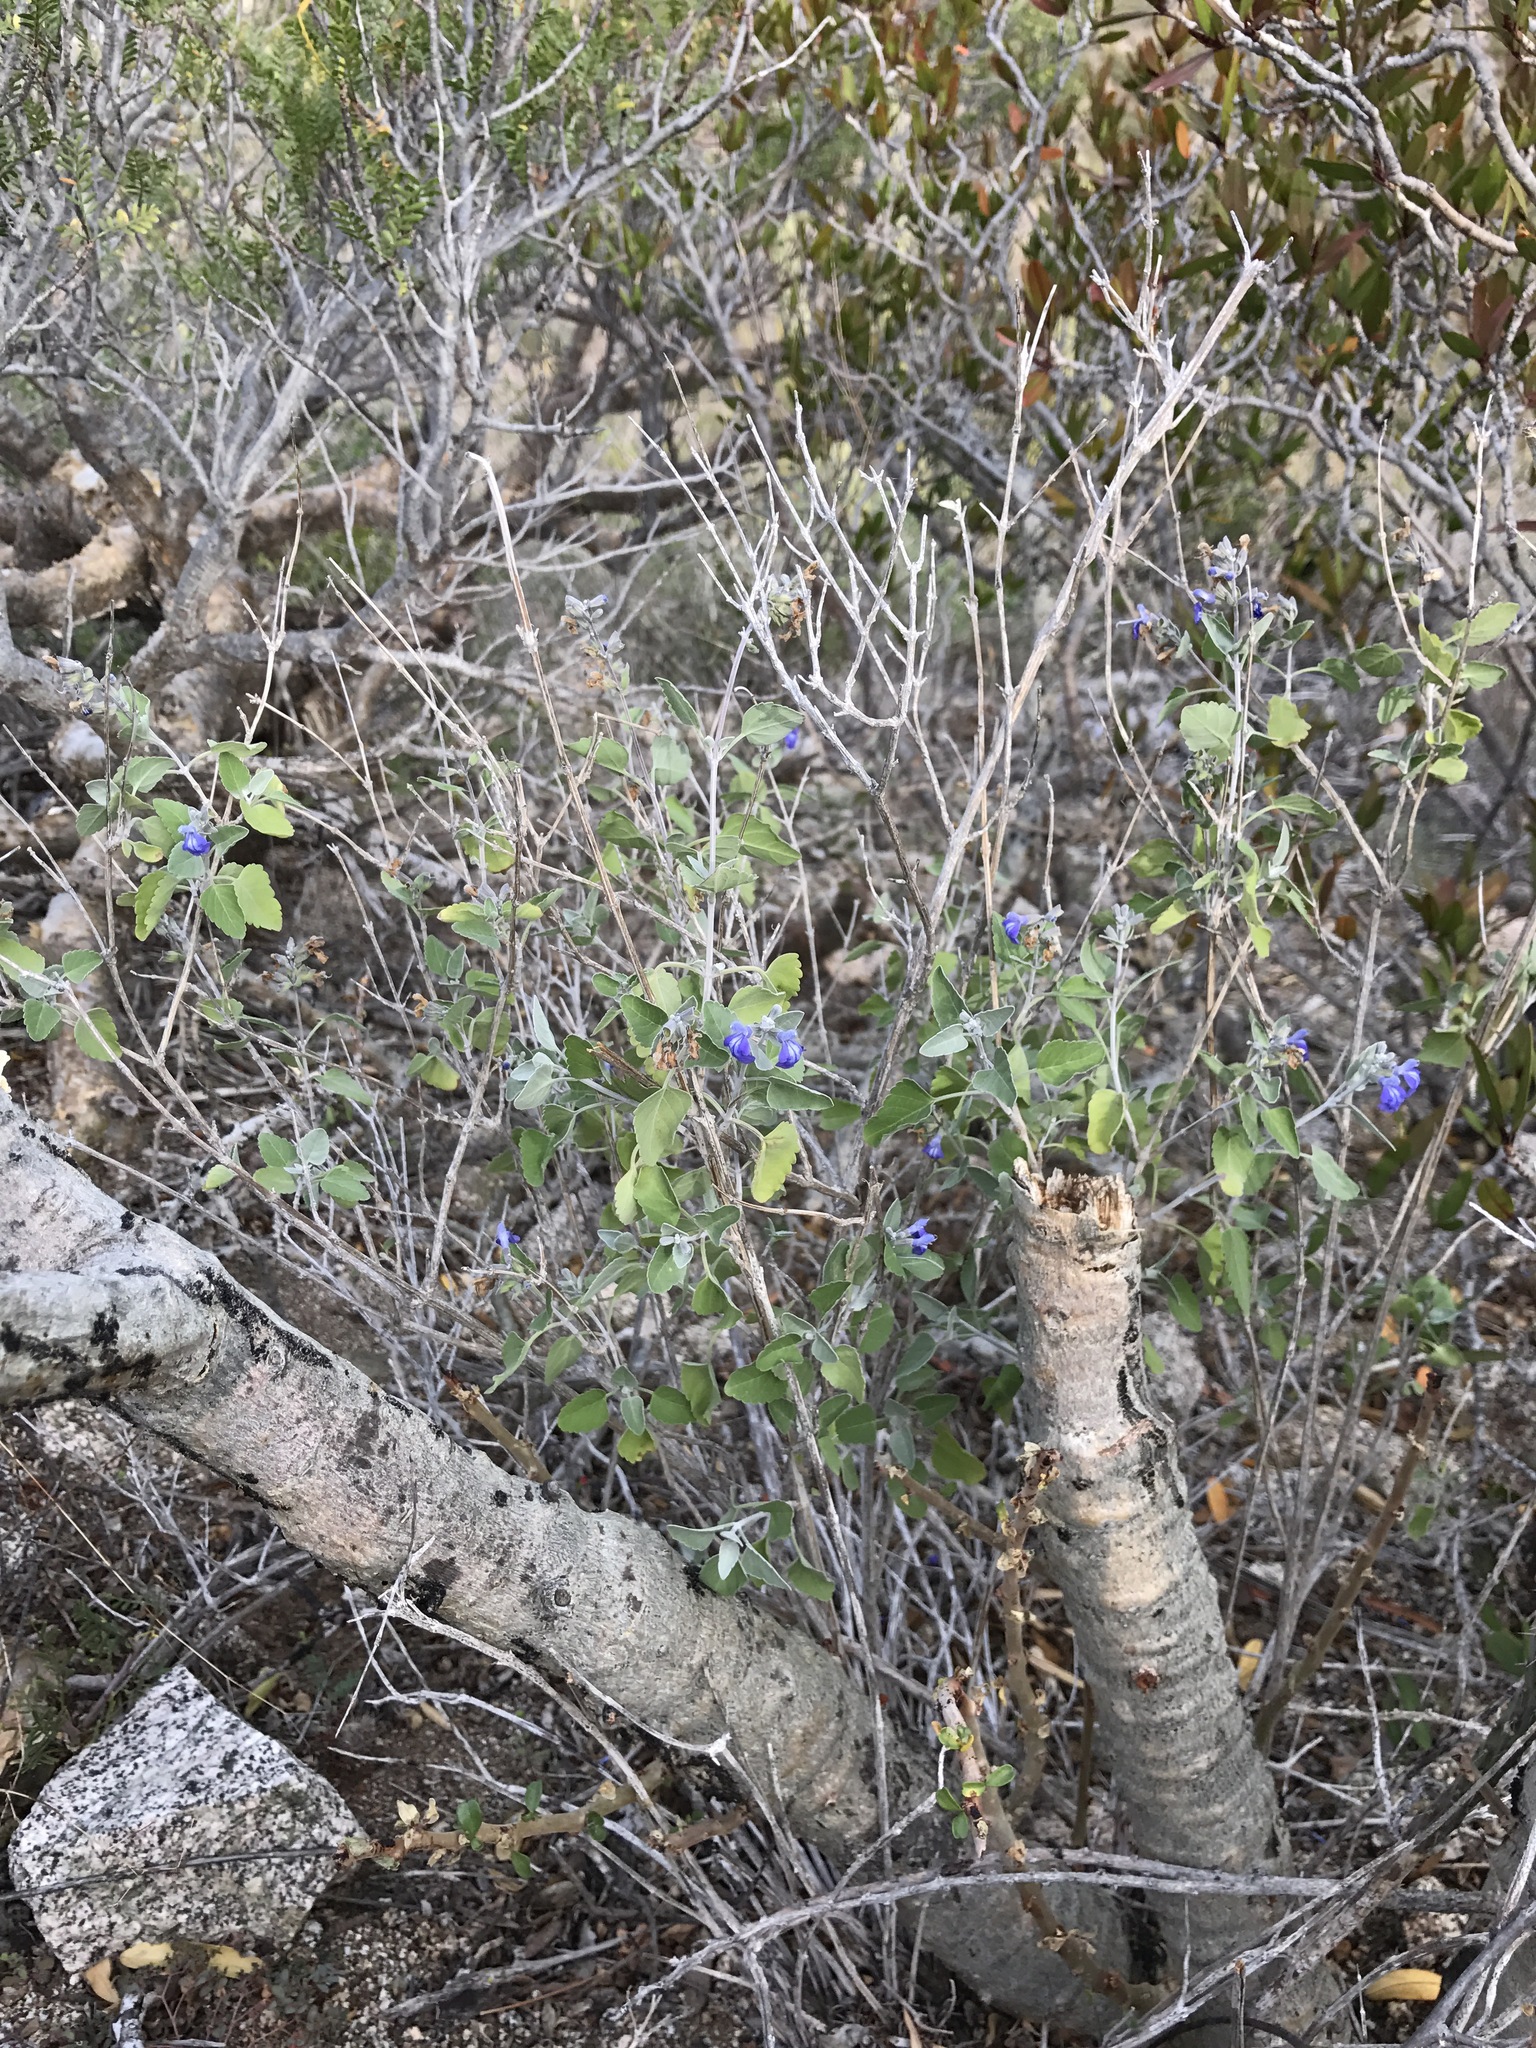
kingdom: Plantae
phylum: Tracheophyta
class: Magnoliopsida
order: Lamiales
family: Lamiaceae
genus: Salvia
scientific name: Salvia similis
